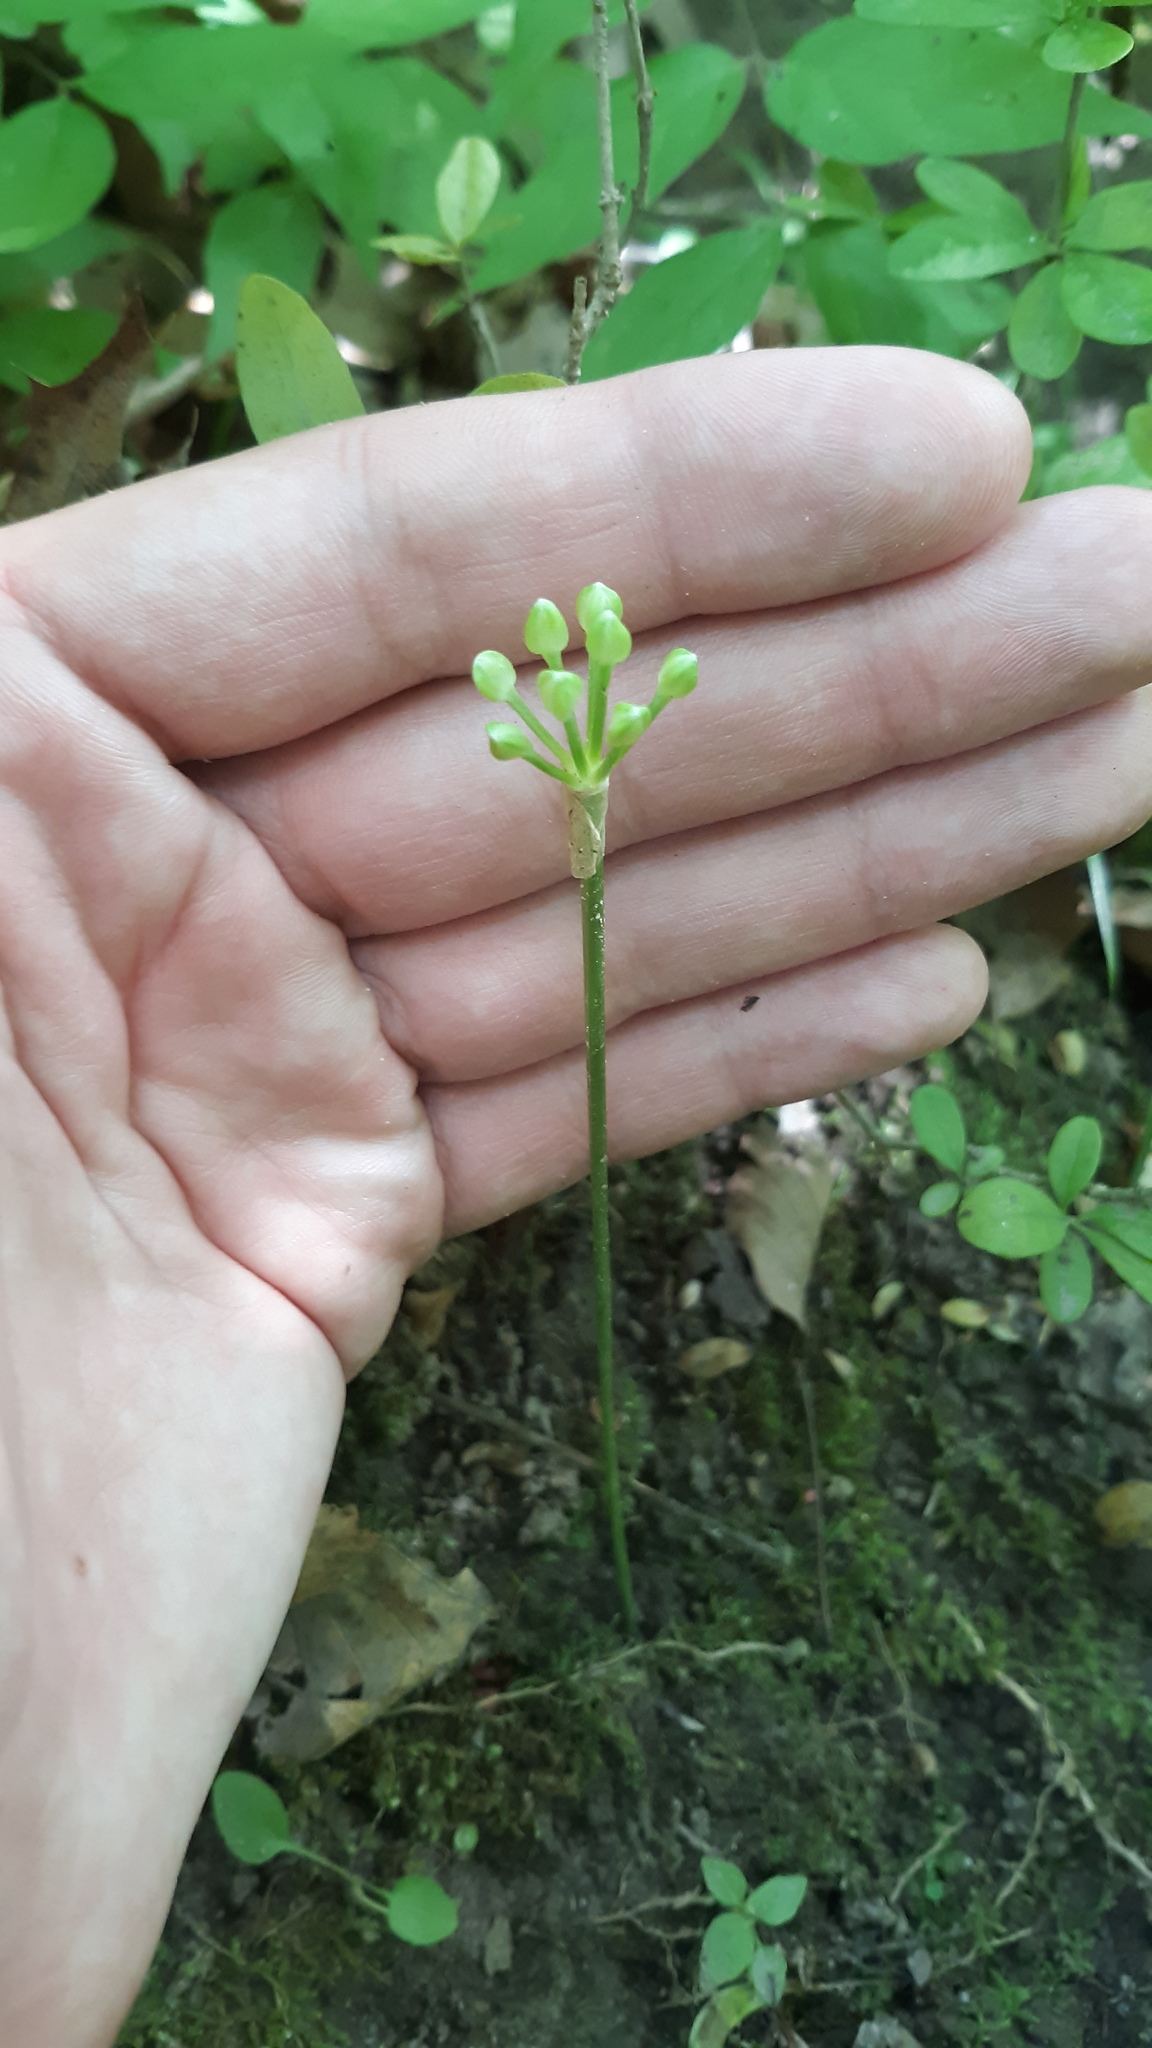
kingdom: Plantae
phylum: Tracheophyta
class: Liliopsida
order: Asparagales
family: Amaryllidaceae
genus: Allium
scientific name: Allium tricoccum
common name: Ramp
